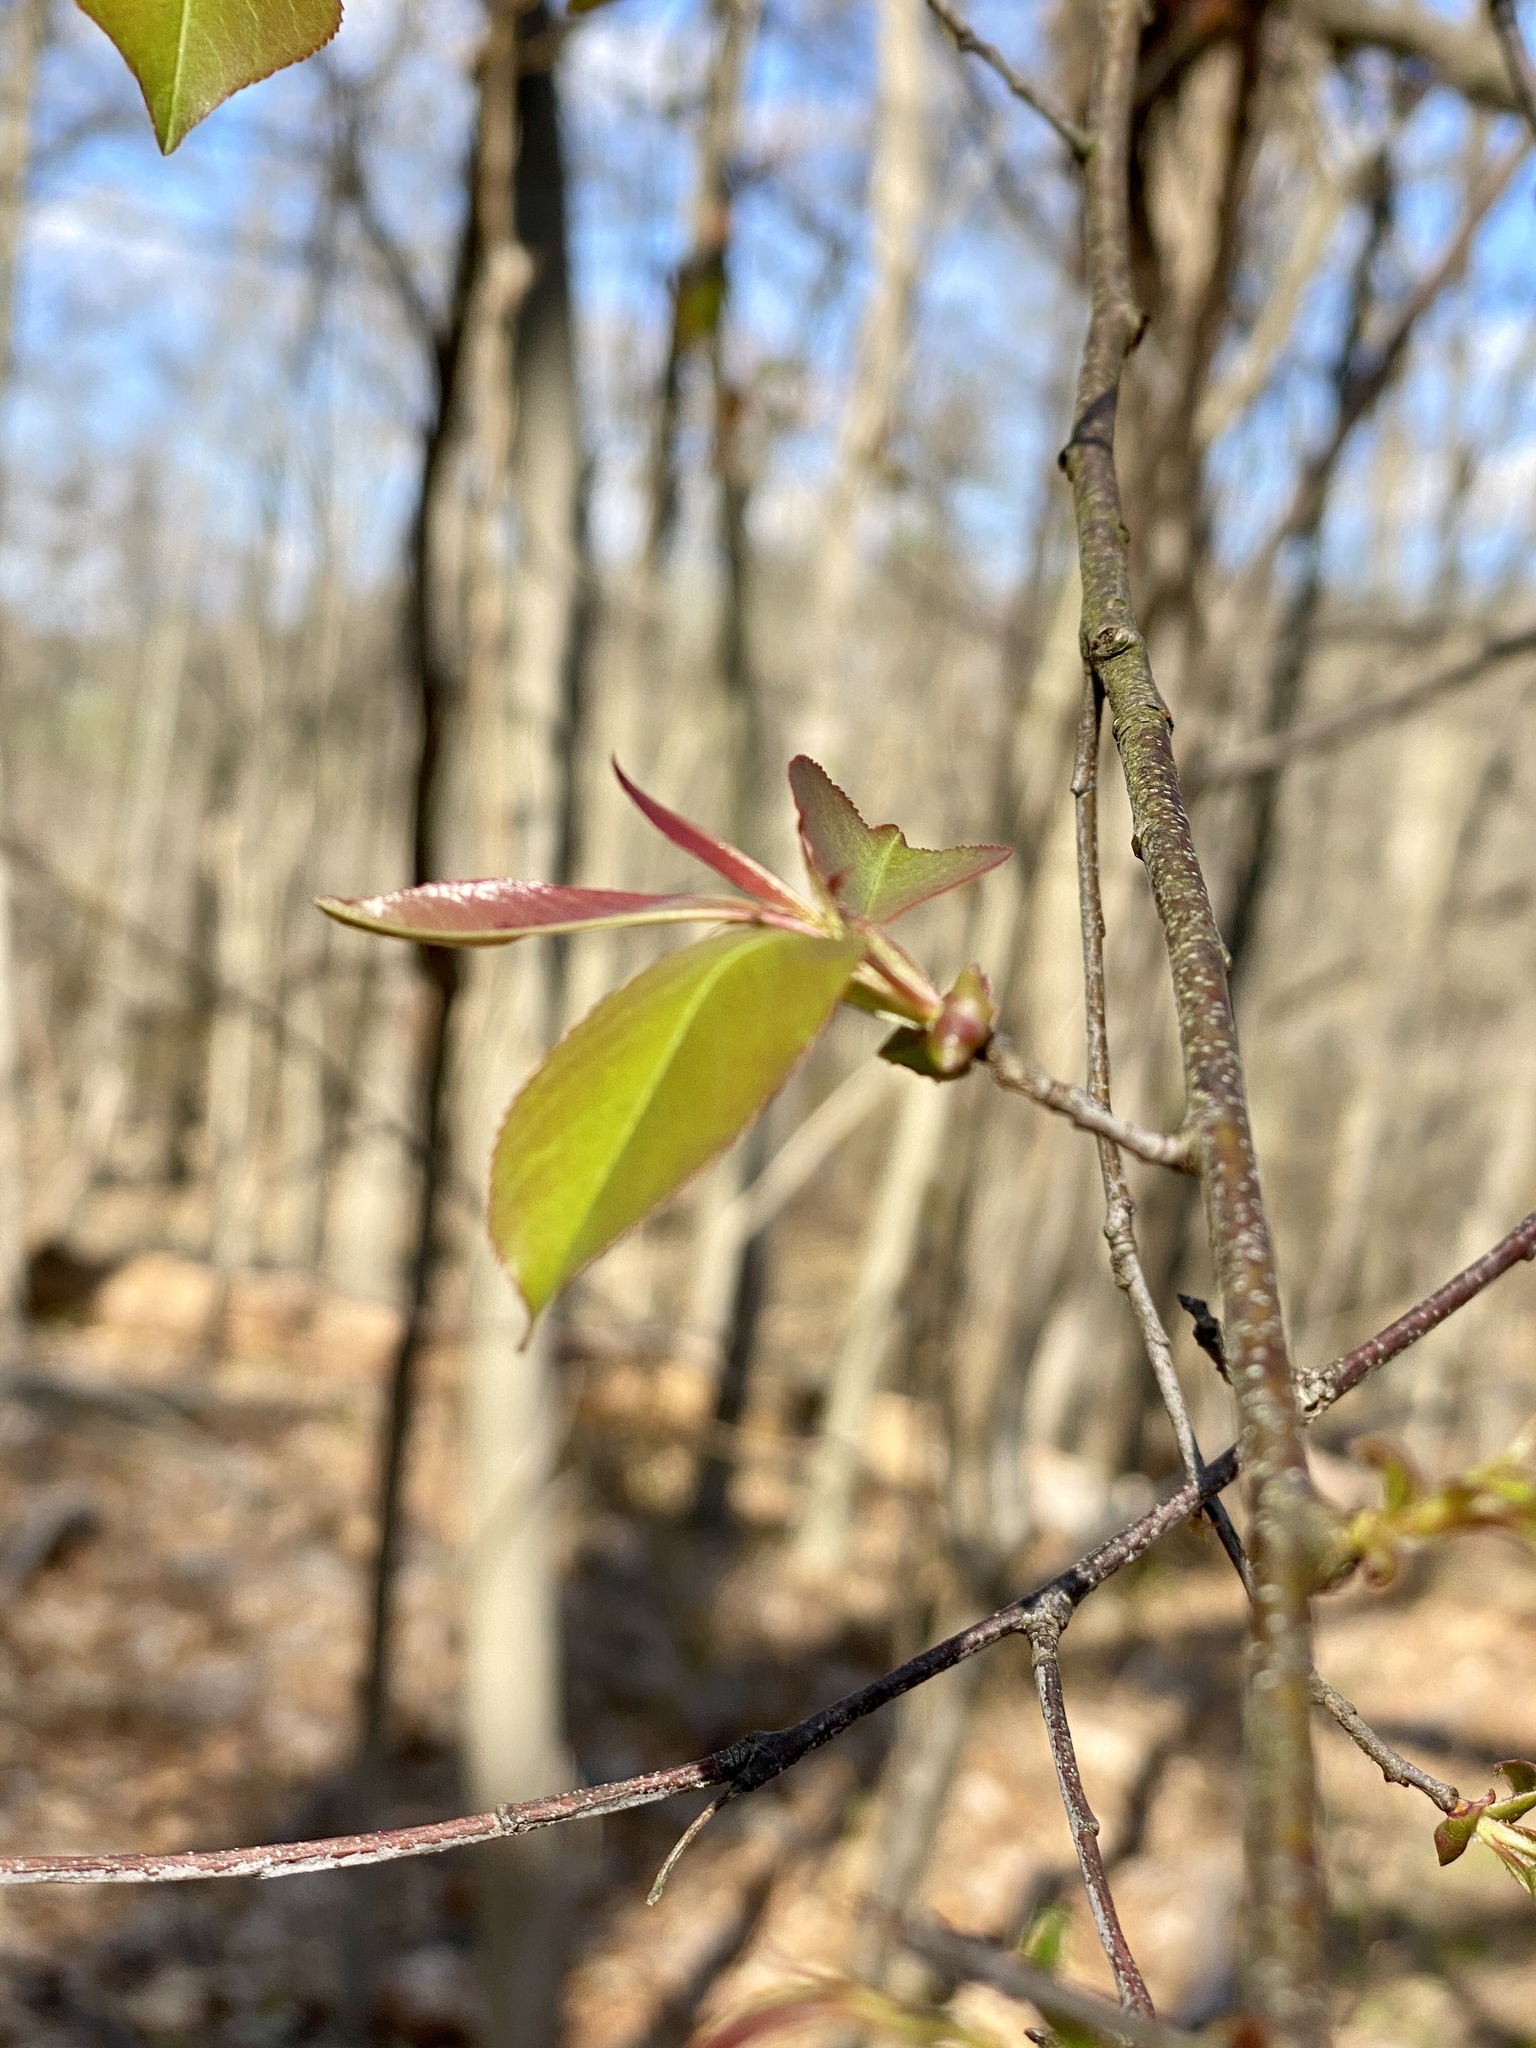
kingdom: Plantae
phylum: Tracheophyta
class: Magnoliopsida
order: Rosales
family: Rosaceae
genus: Prunus
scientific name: Prunus serotina
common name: Black cherry
